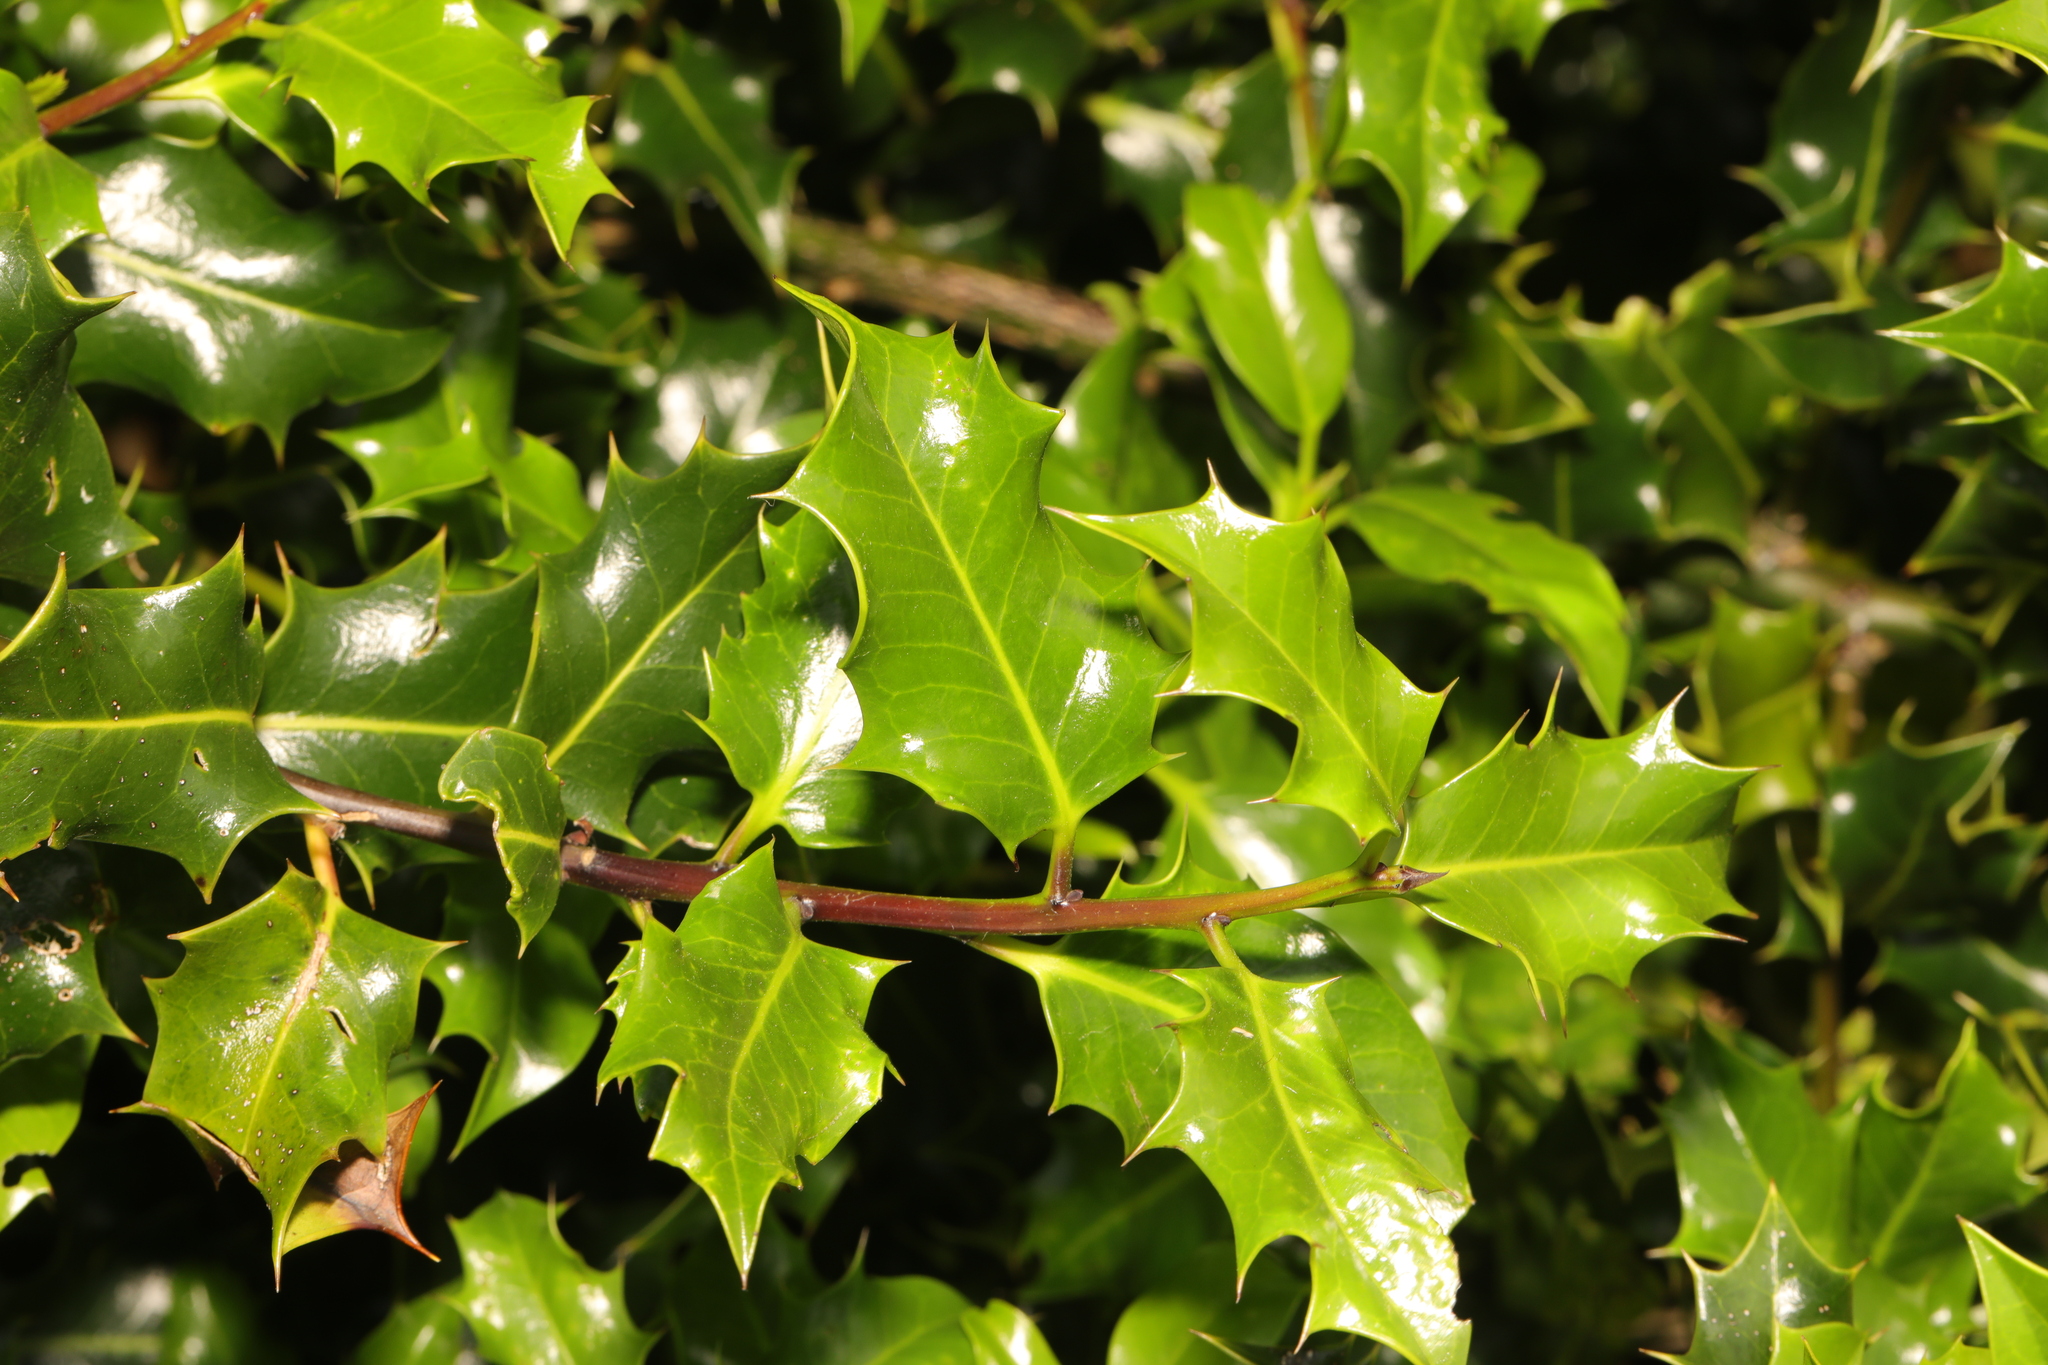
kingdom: Plantae
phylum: Tracheophyta
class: Magnoliopsida
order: Aquifoliales
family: Aquifoliaceae
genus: Ilex
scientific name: Ilex aquifolium
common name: English holly
